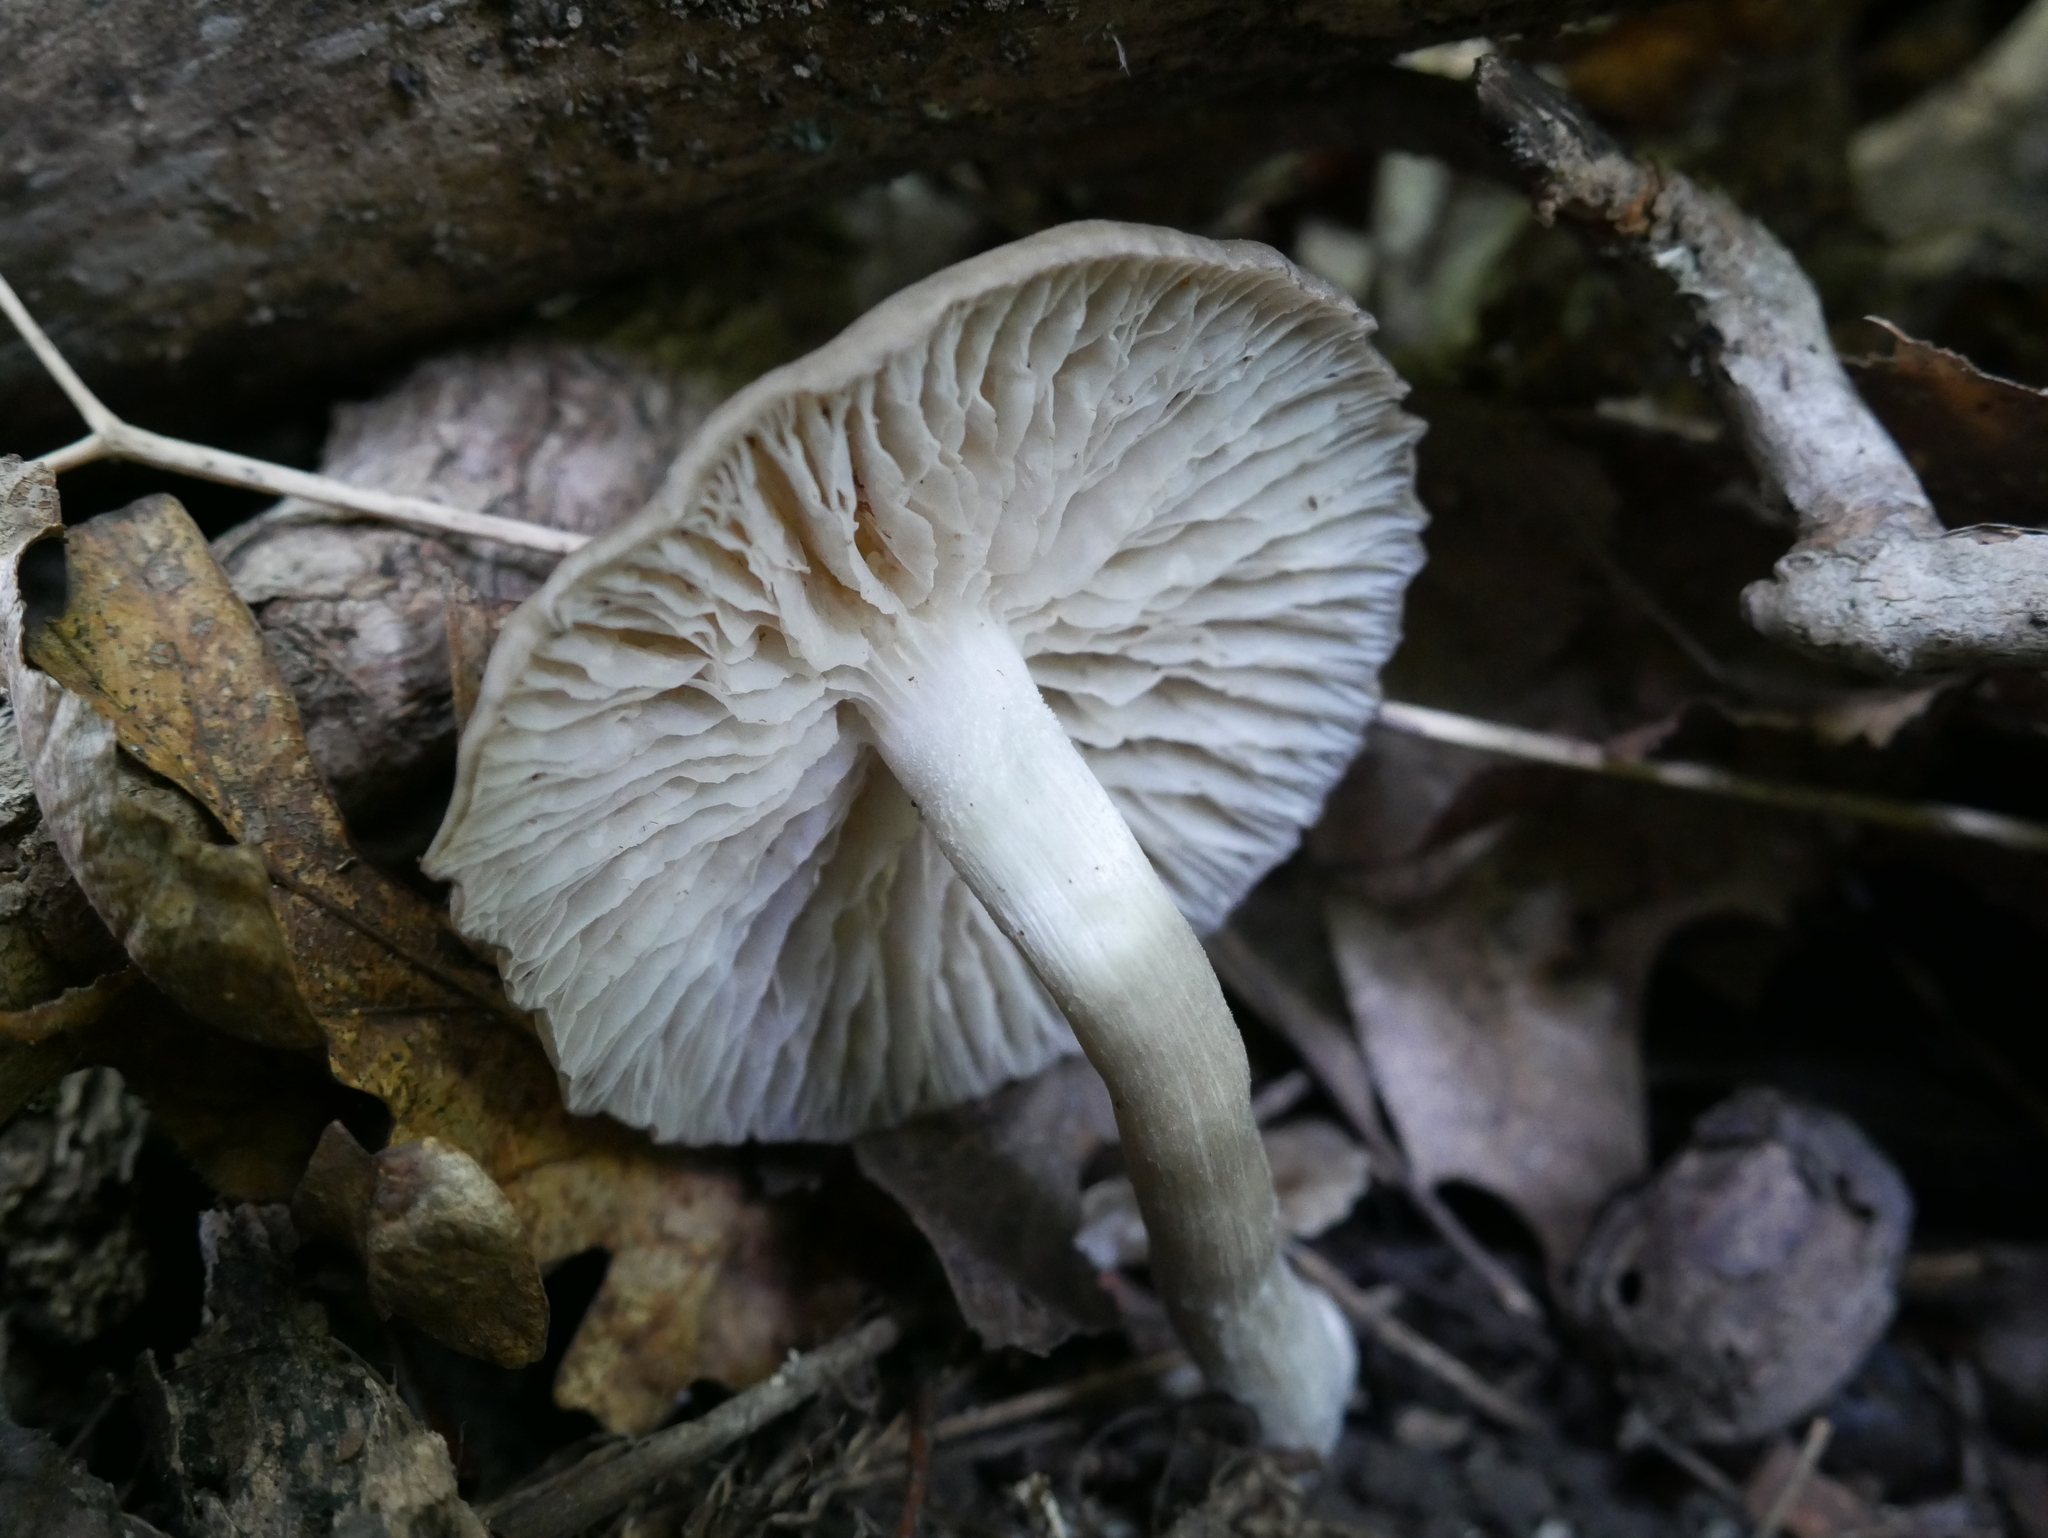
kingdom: Fungi
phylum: Basidiomycota
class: Agaricomycetes
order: Agaricales
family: Marasmiaceae
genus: Clitocybula
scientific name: Clitocybula lacerata
